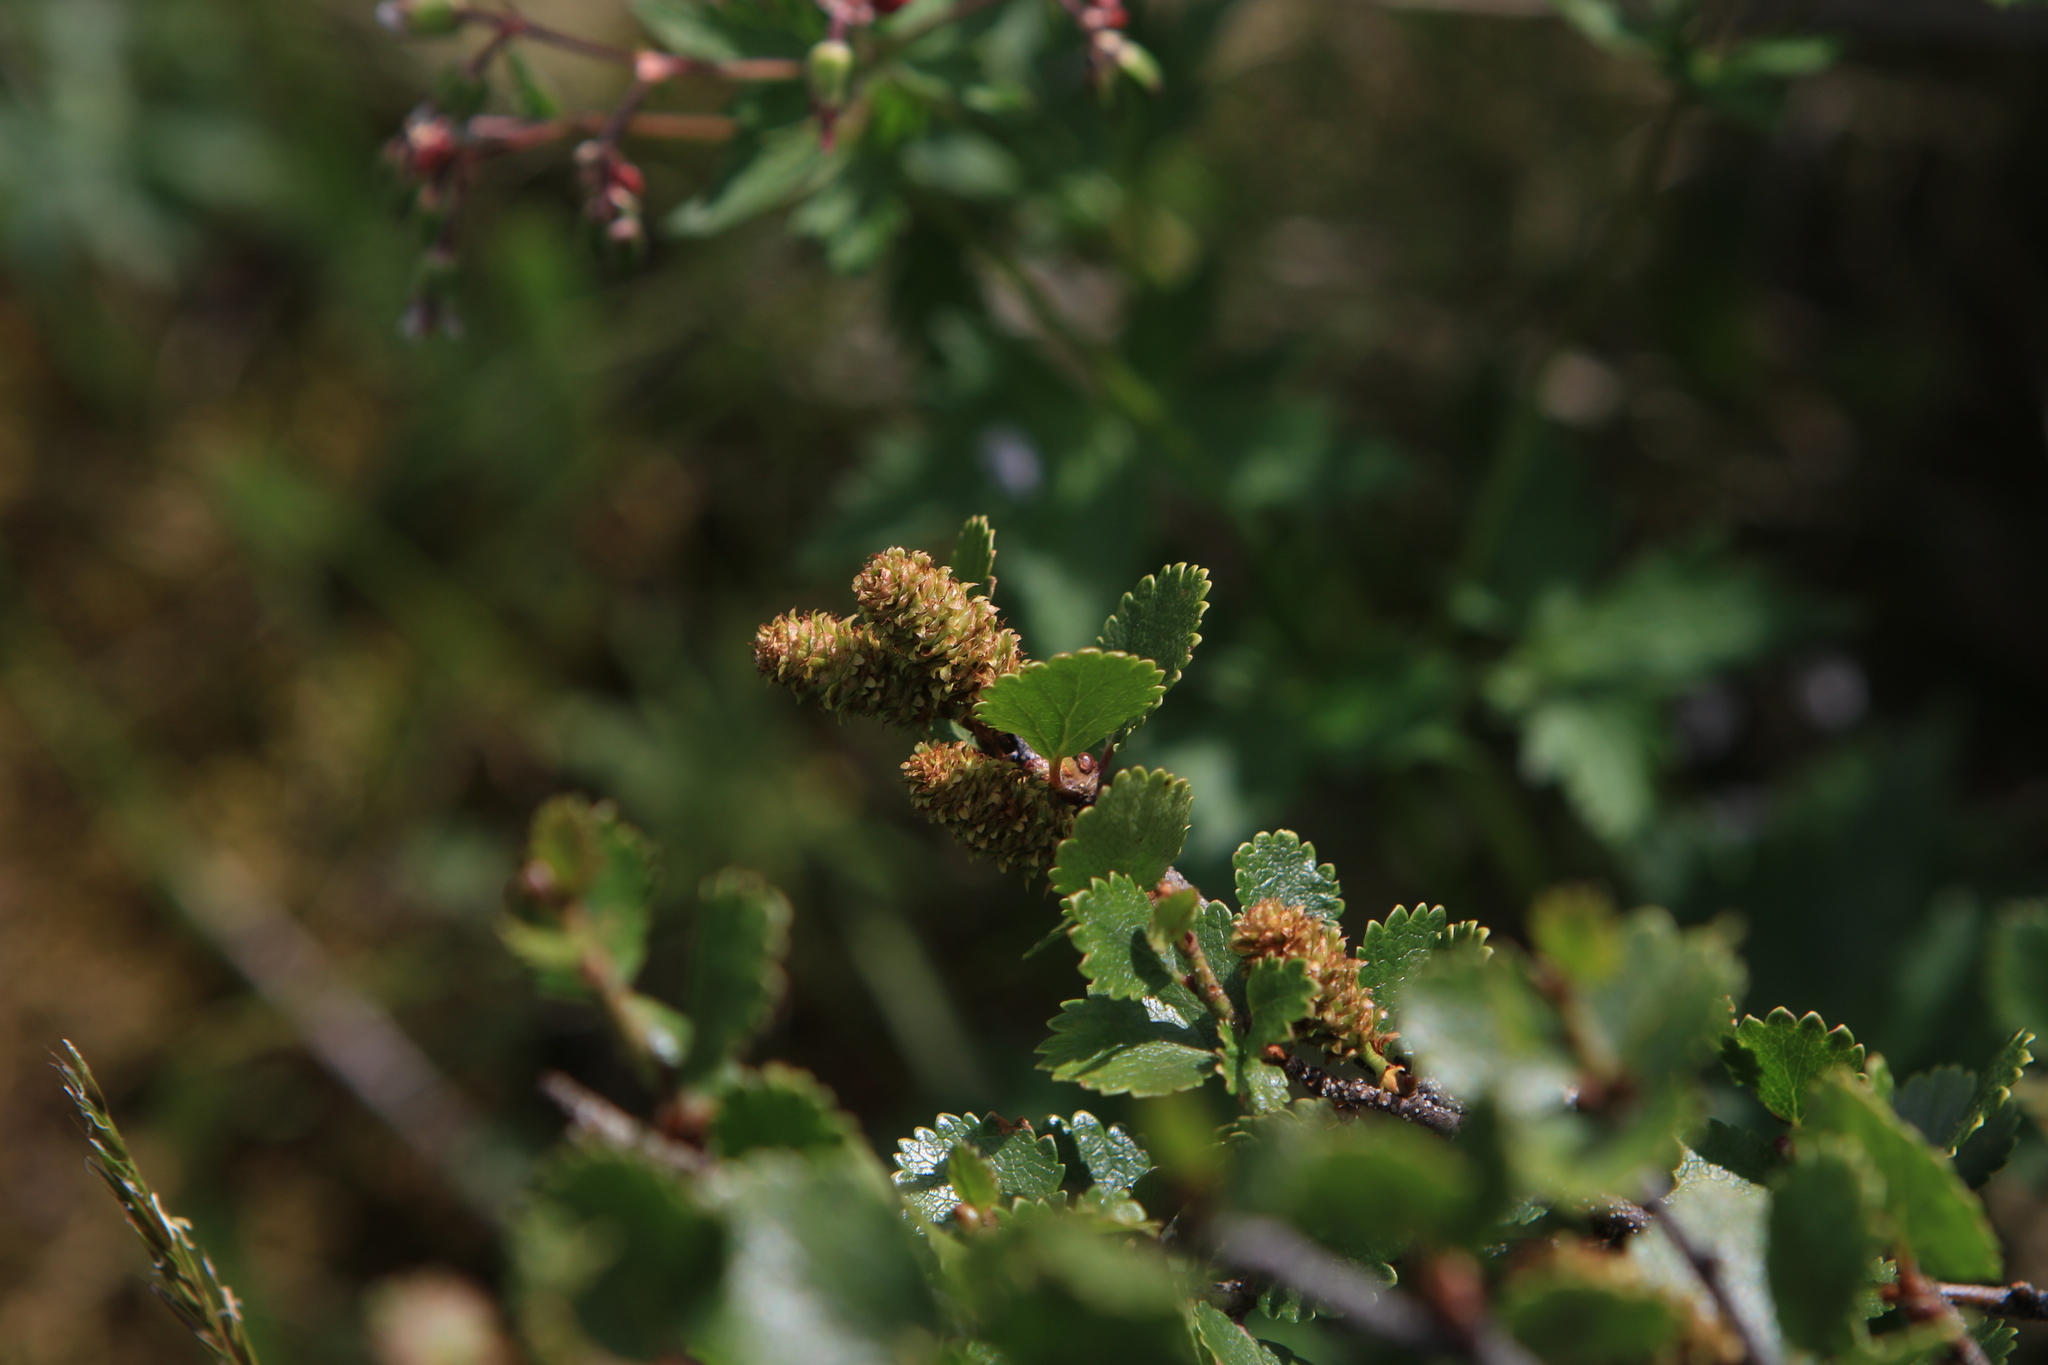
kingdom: Plantae
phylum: Tracheophyta
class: Magnoliopsida
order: Fagales
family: Betulaceae
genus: Betula
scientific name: Betula nana
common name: Arctic dwarf birch
